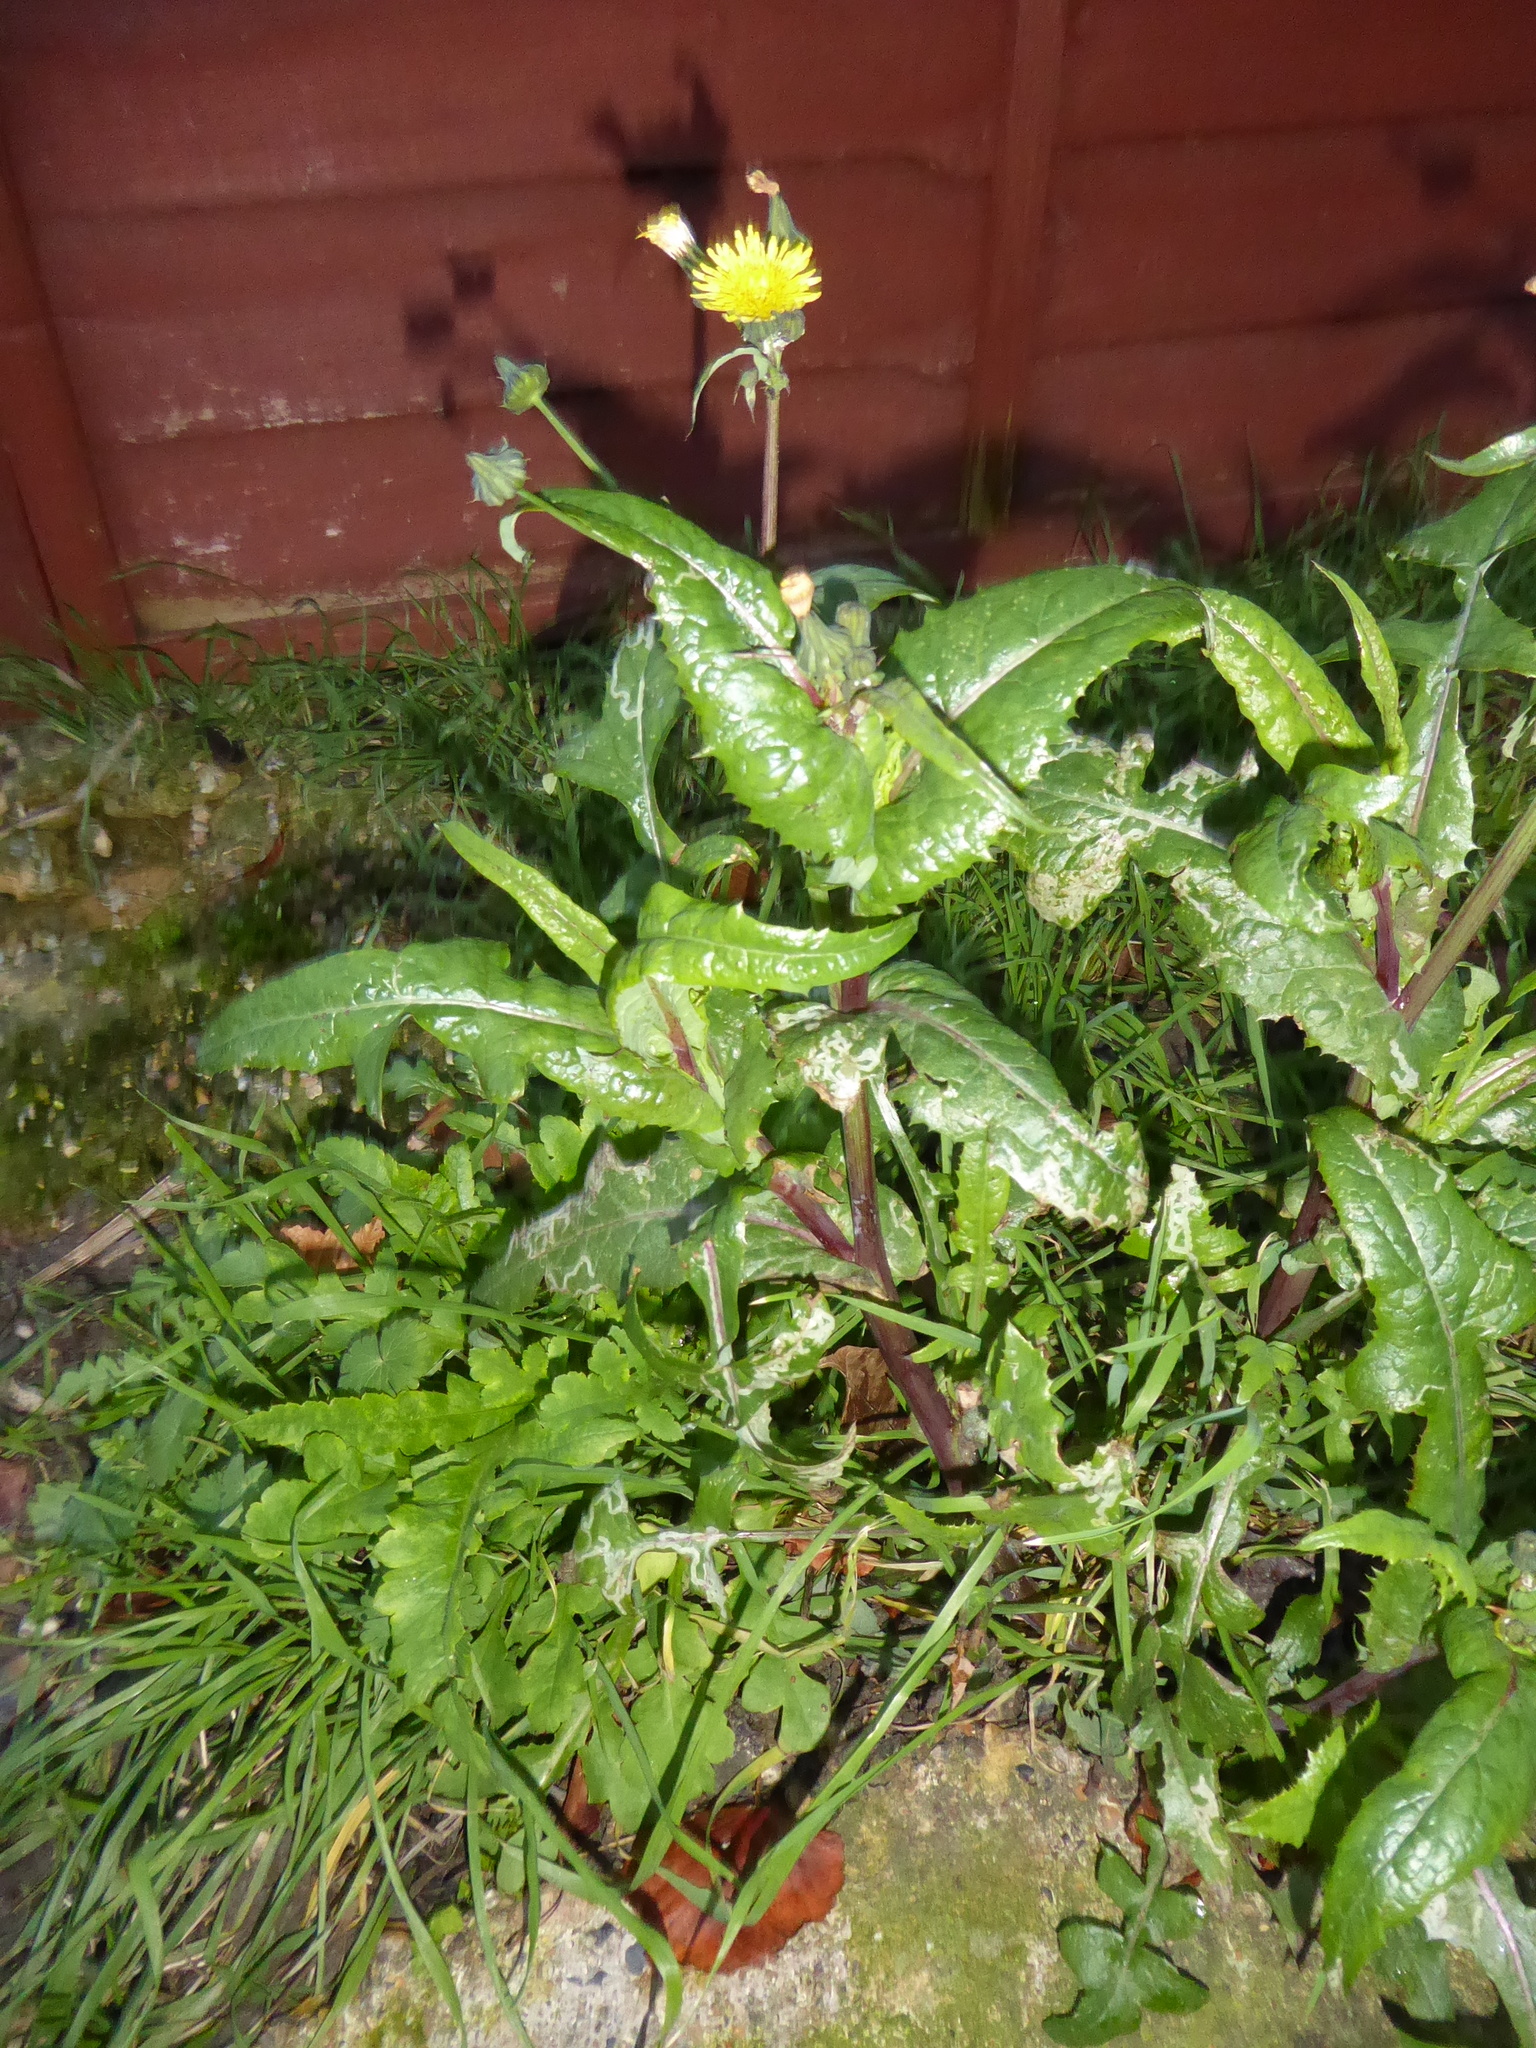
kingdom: Plantae
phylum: Tracheophyta
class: Magnoliopsida
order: Asterales
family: Asteraceae
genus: Sonchus
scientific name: Sonchus oleraceus
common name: Common sowthistle
